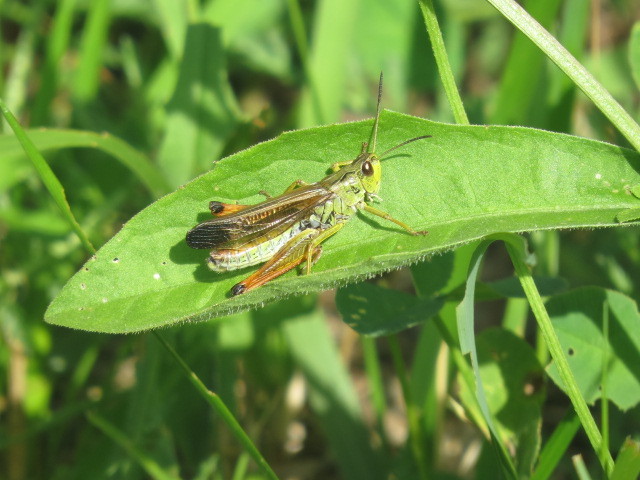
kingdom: Animalia
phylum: Arthropoda
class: Insecta
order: Orthoptera
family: Acrididae
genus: Stauroderus
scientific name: Stauroderus scalaris
